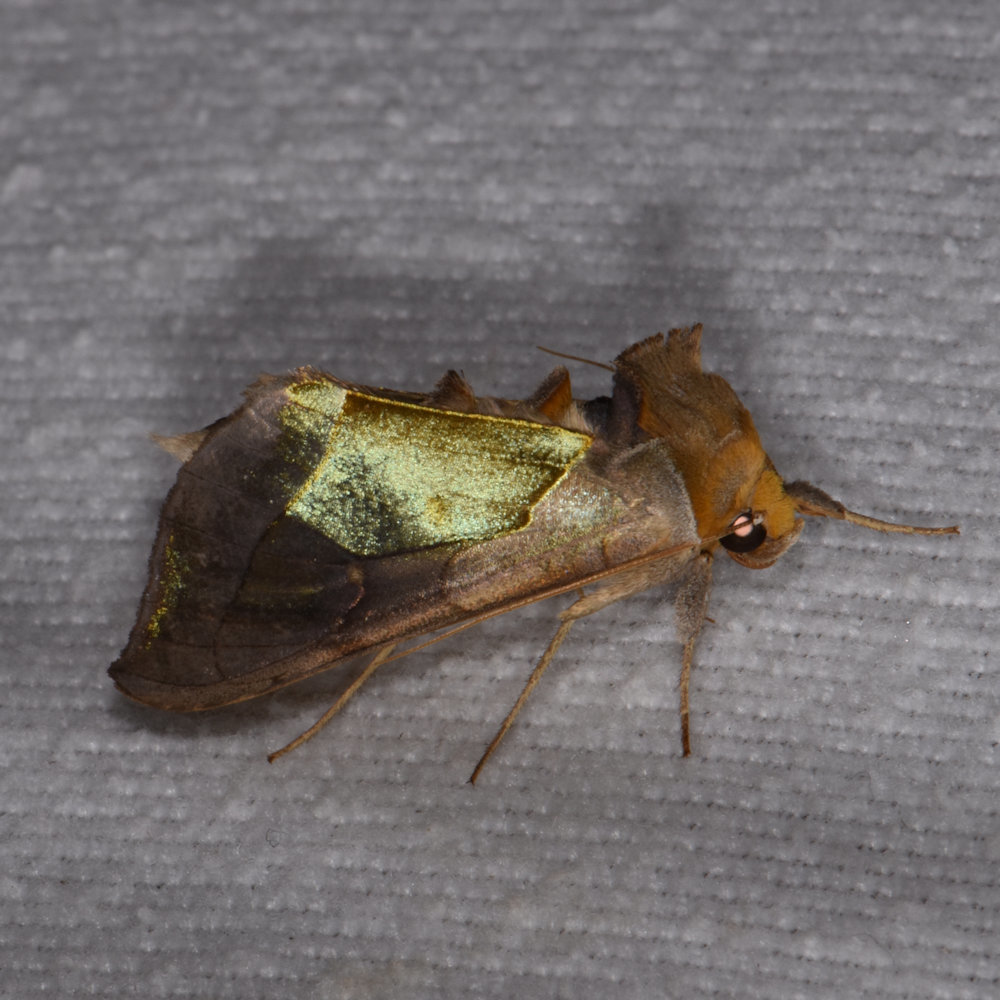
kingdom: Animalia
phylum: Arthropoda
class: Insecta
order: Lepidoptera
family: Noctuidae
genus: Diachrysia
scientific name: Diachrysia balluca
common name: Green-patched looper moth
